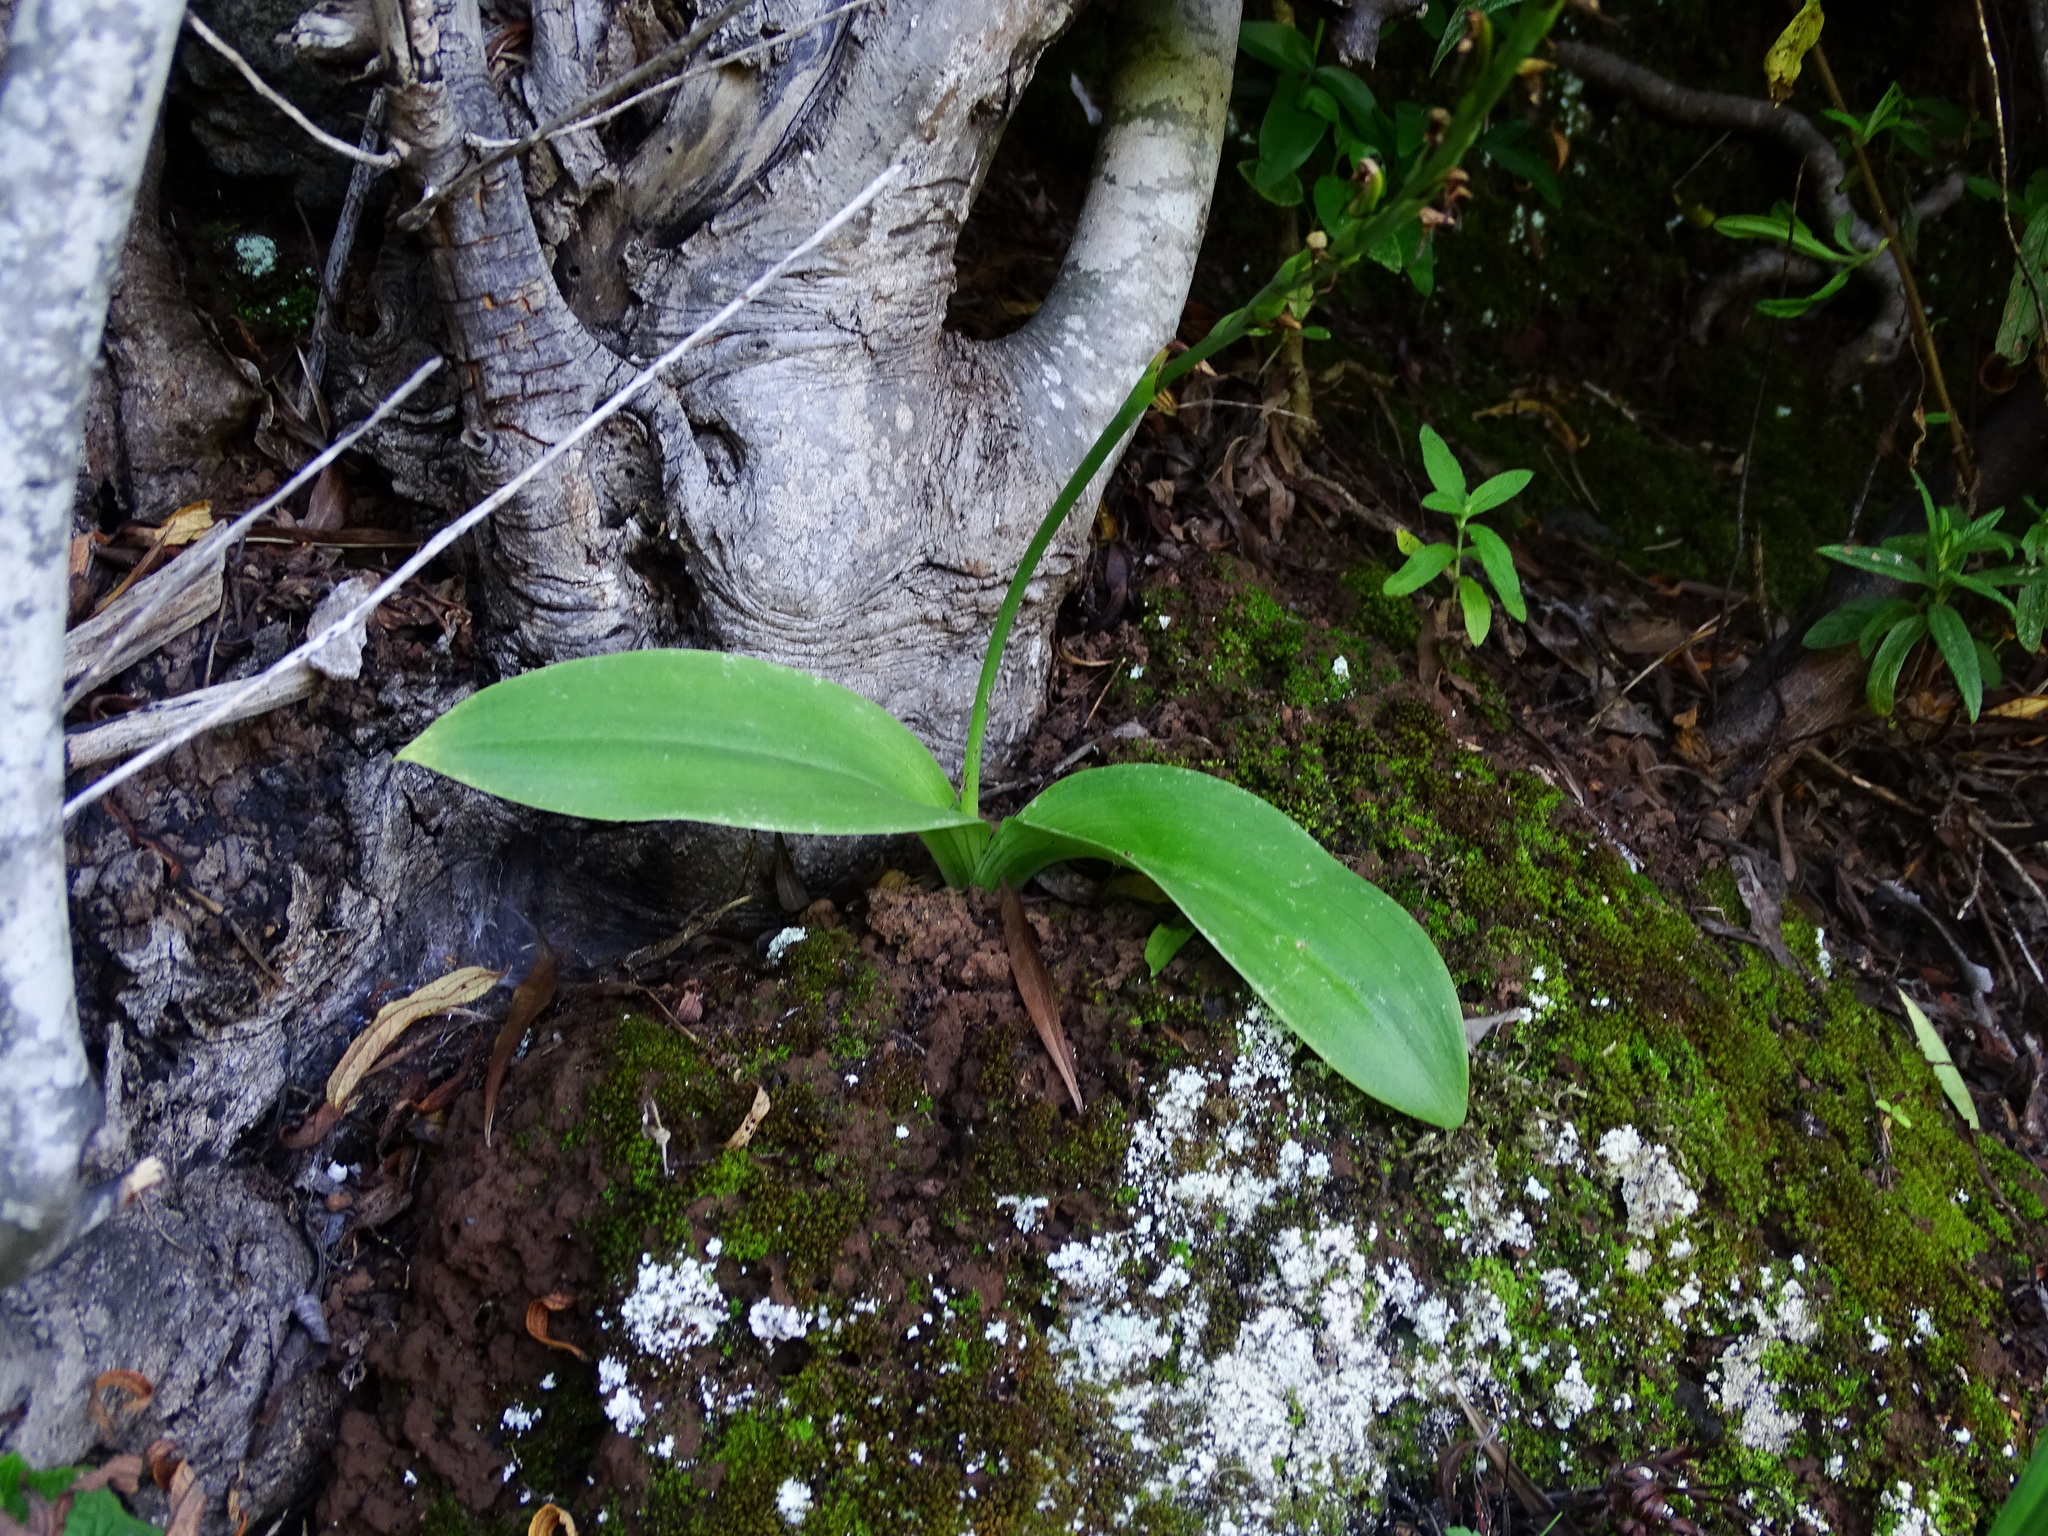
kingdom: Plantae
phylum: Tracheophyta
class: Liliopsida
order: Asparagales
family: Orchidaceae
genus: Habenaria
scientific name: Habenaria tridactylites
